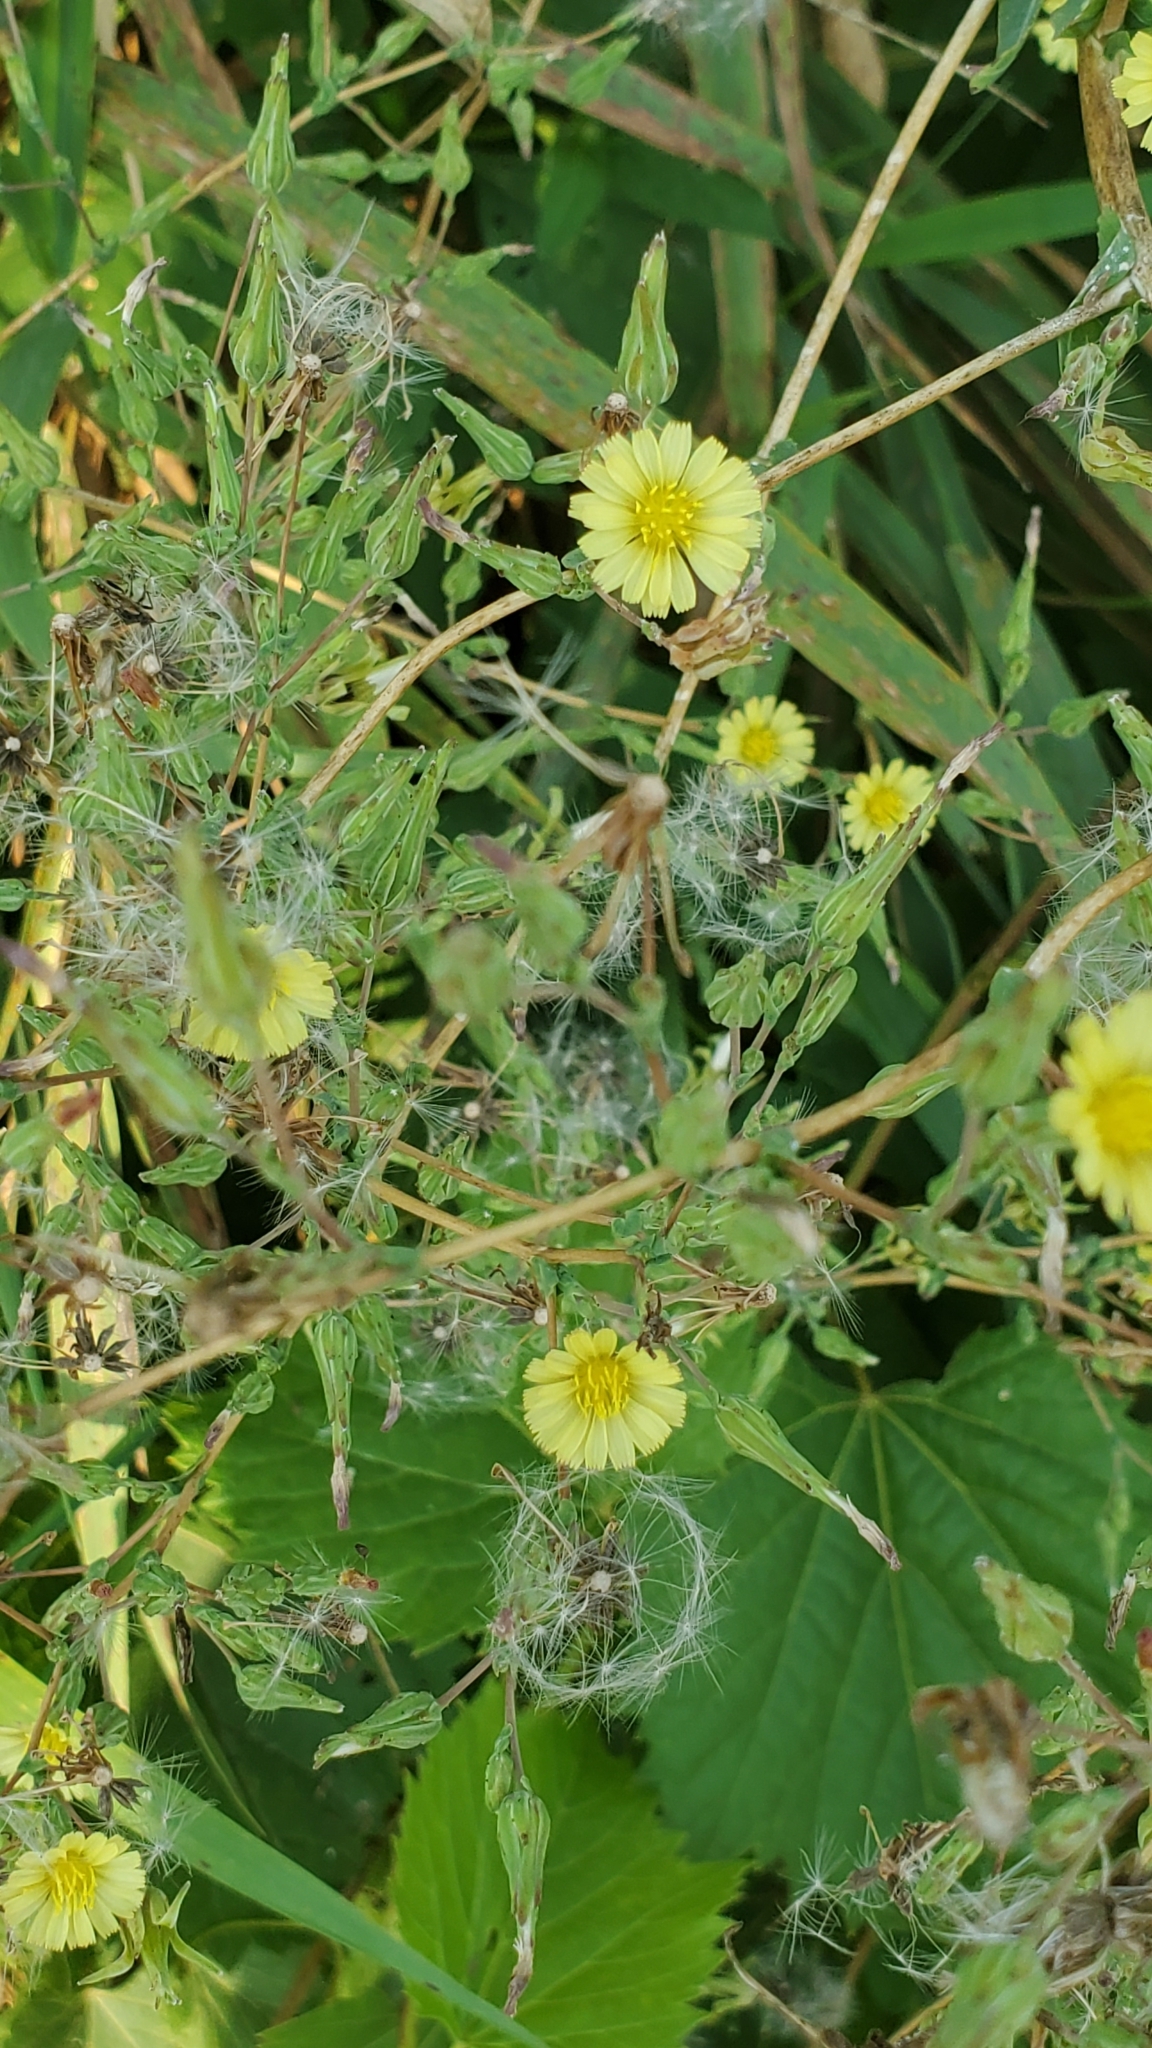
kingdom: Plantae
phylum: Tracheophyta
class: Magnoliopsida
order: Asterales
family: Asteraceae
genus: Lactuca
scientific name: Lactuca serriola
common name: Prickly lettuce
